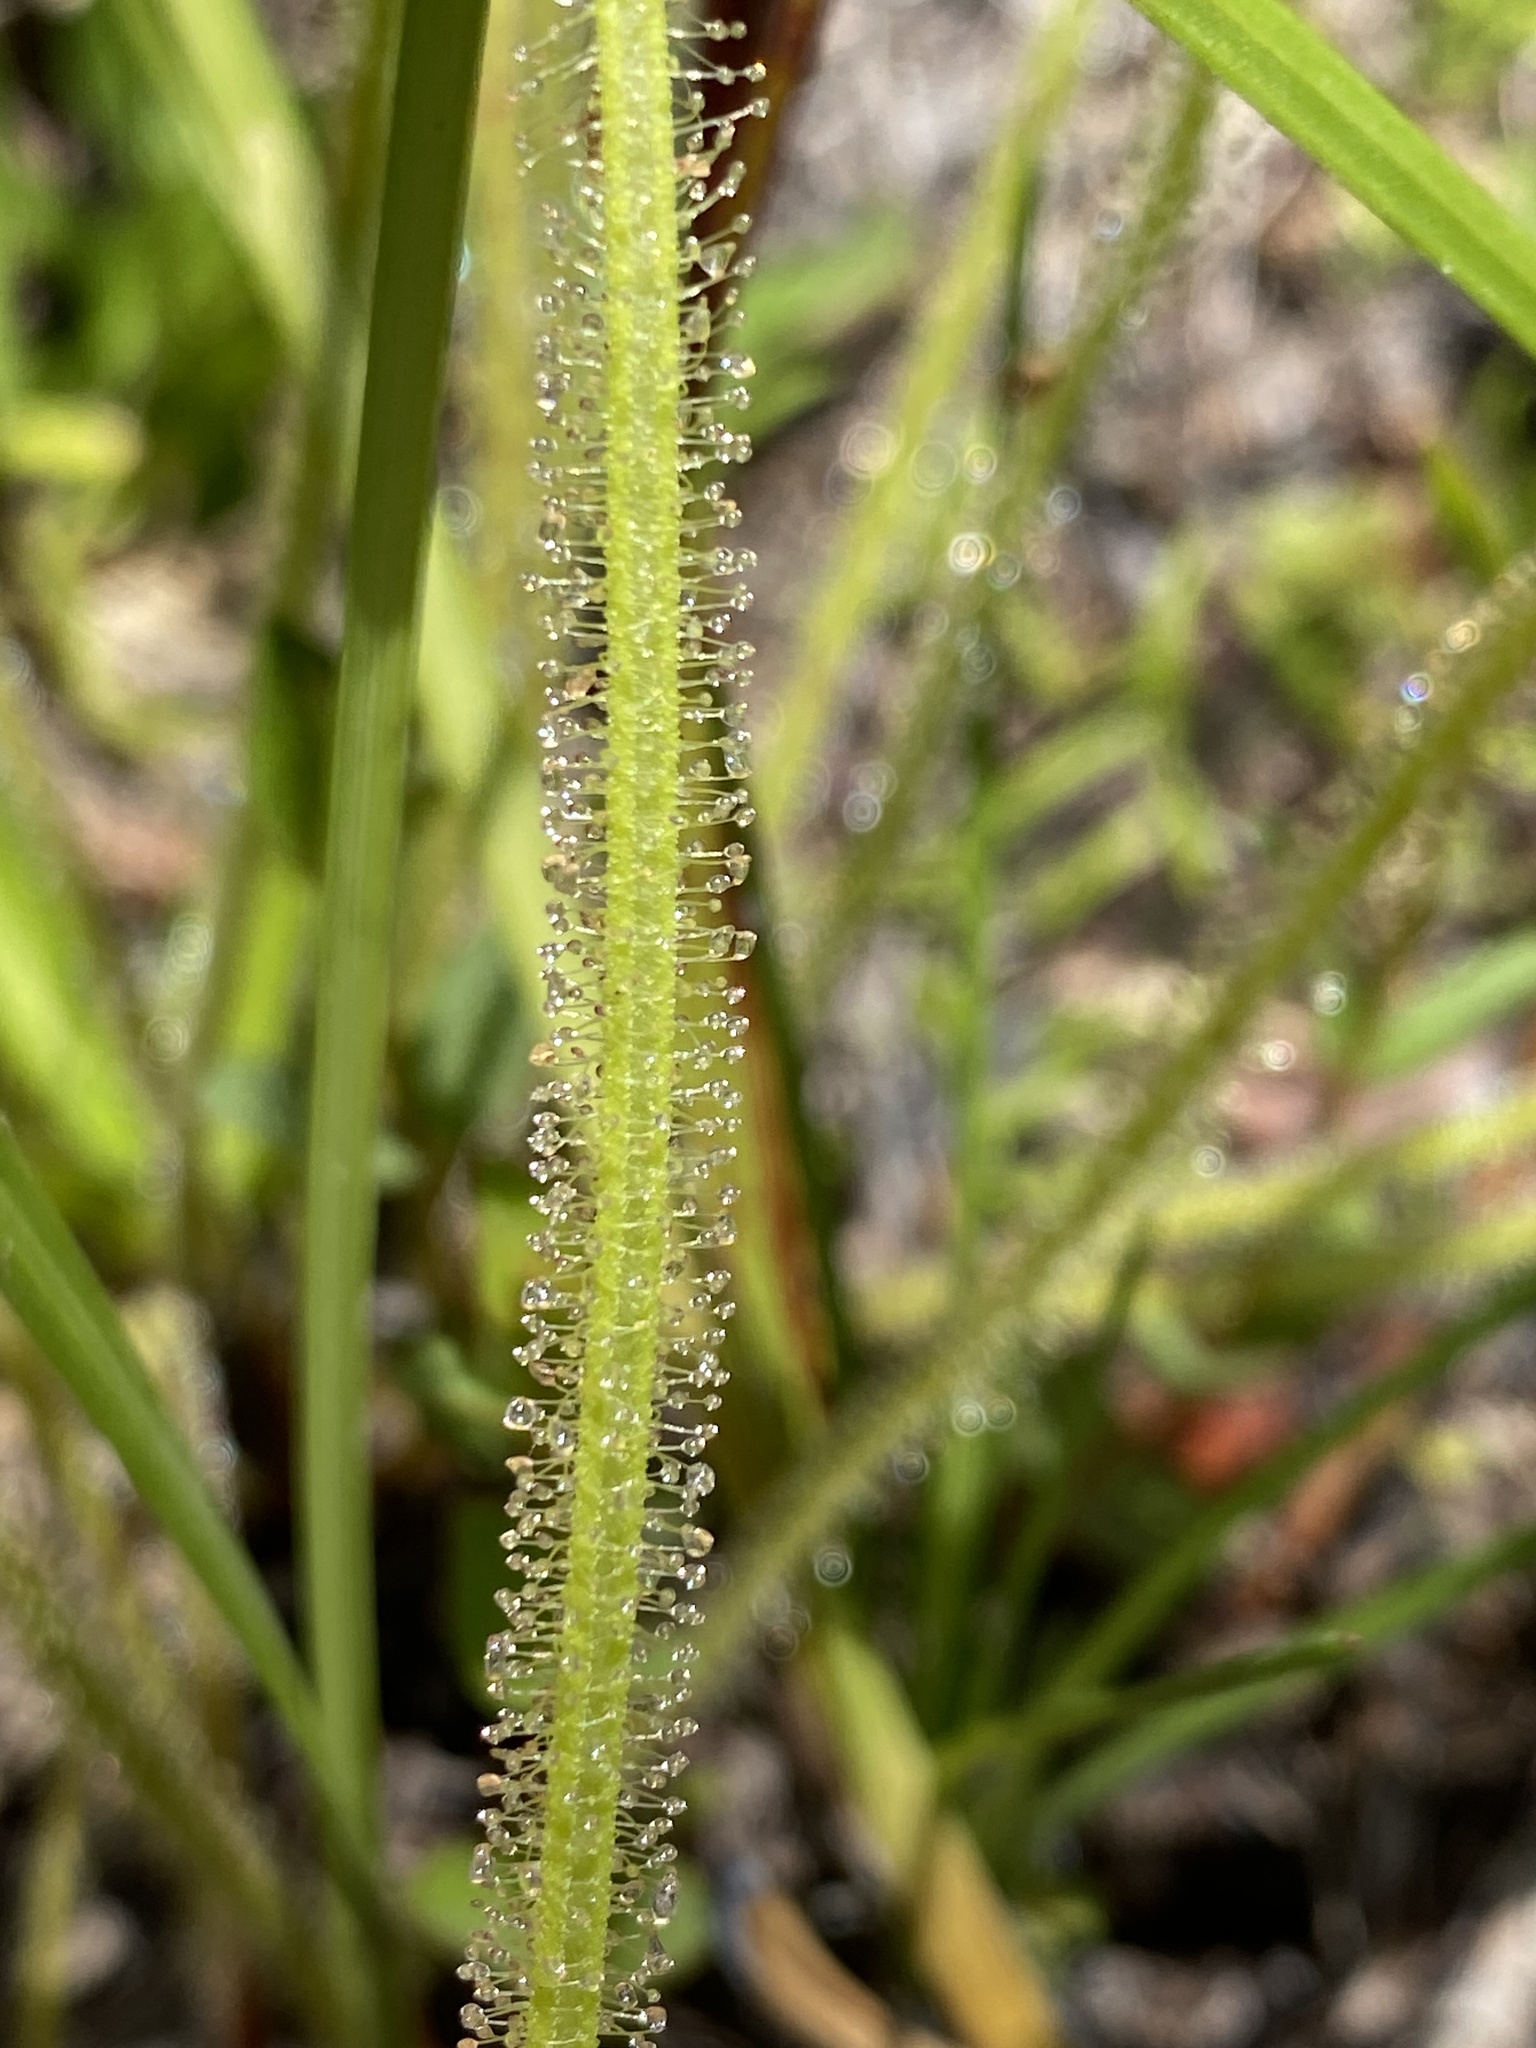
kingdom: Plantae
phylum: Tracheophyta
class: Magnoliopsida
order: Caryophyllales
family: Droseraceae
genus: Drosera
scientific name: Drosera filiformis
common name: Dew-thread
